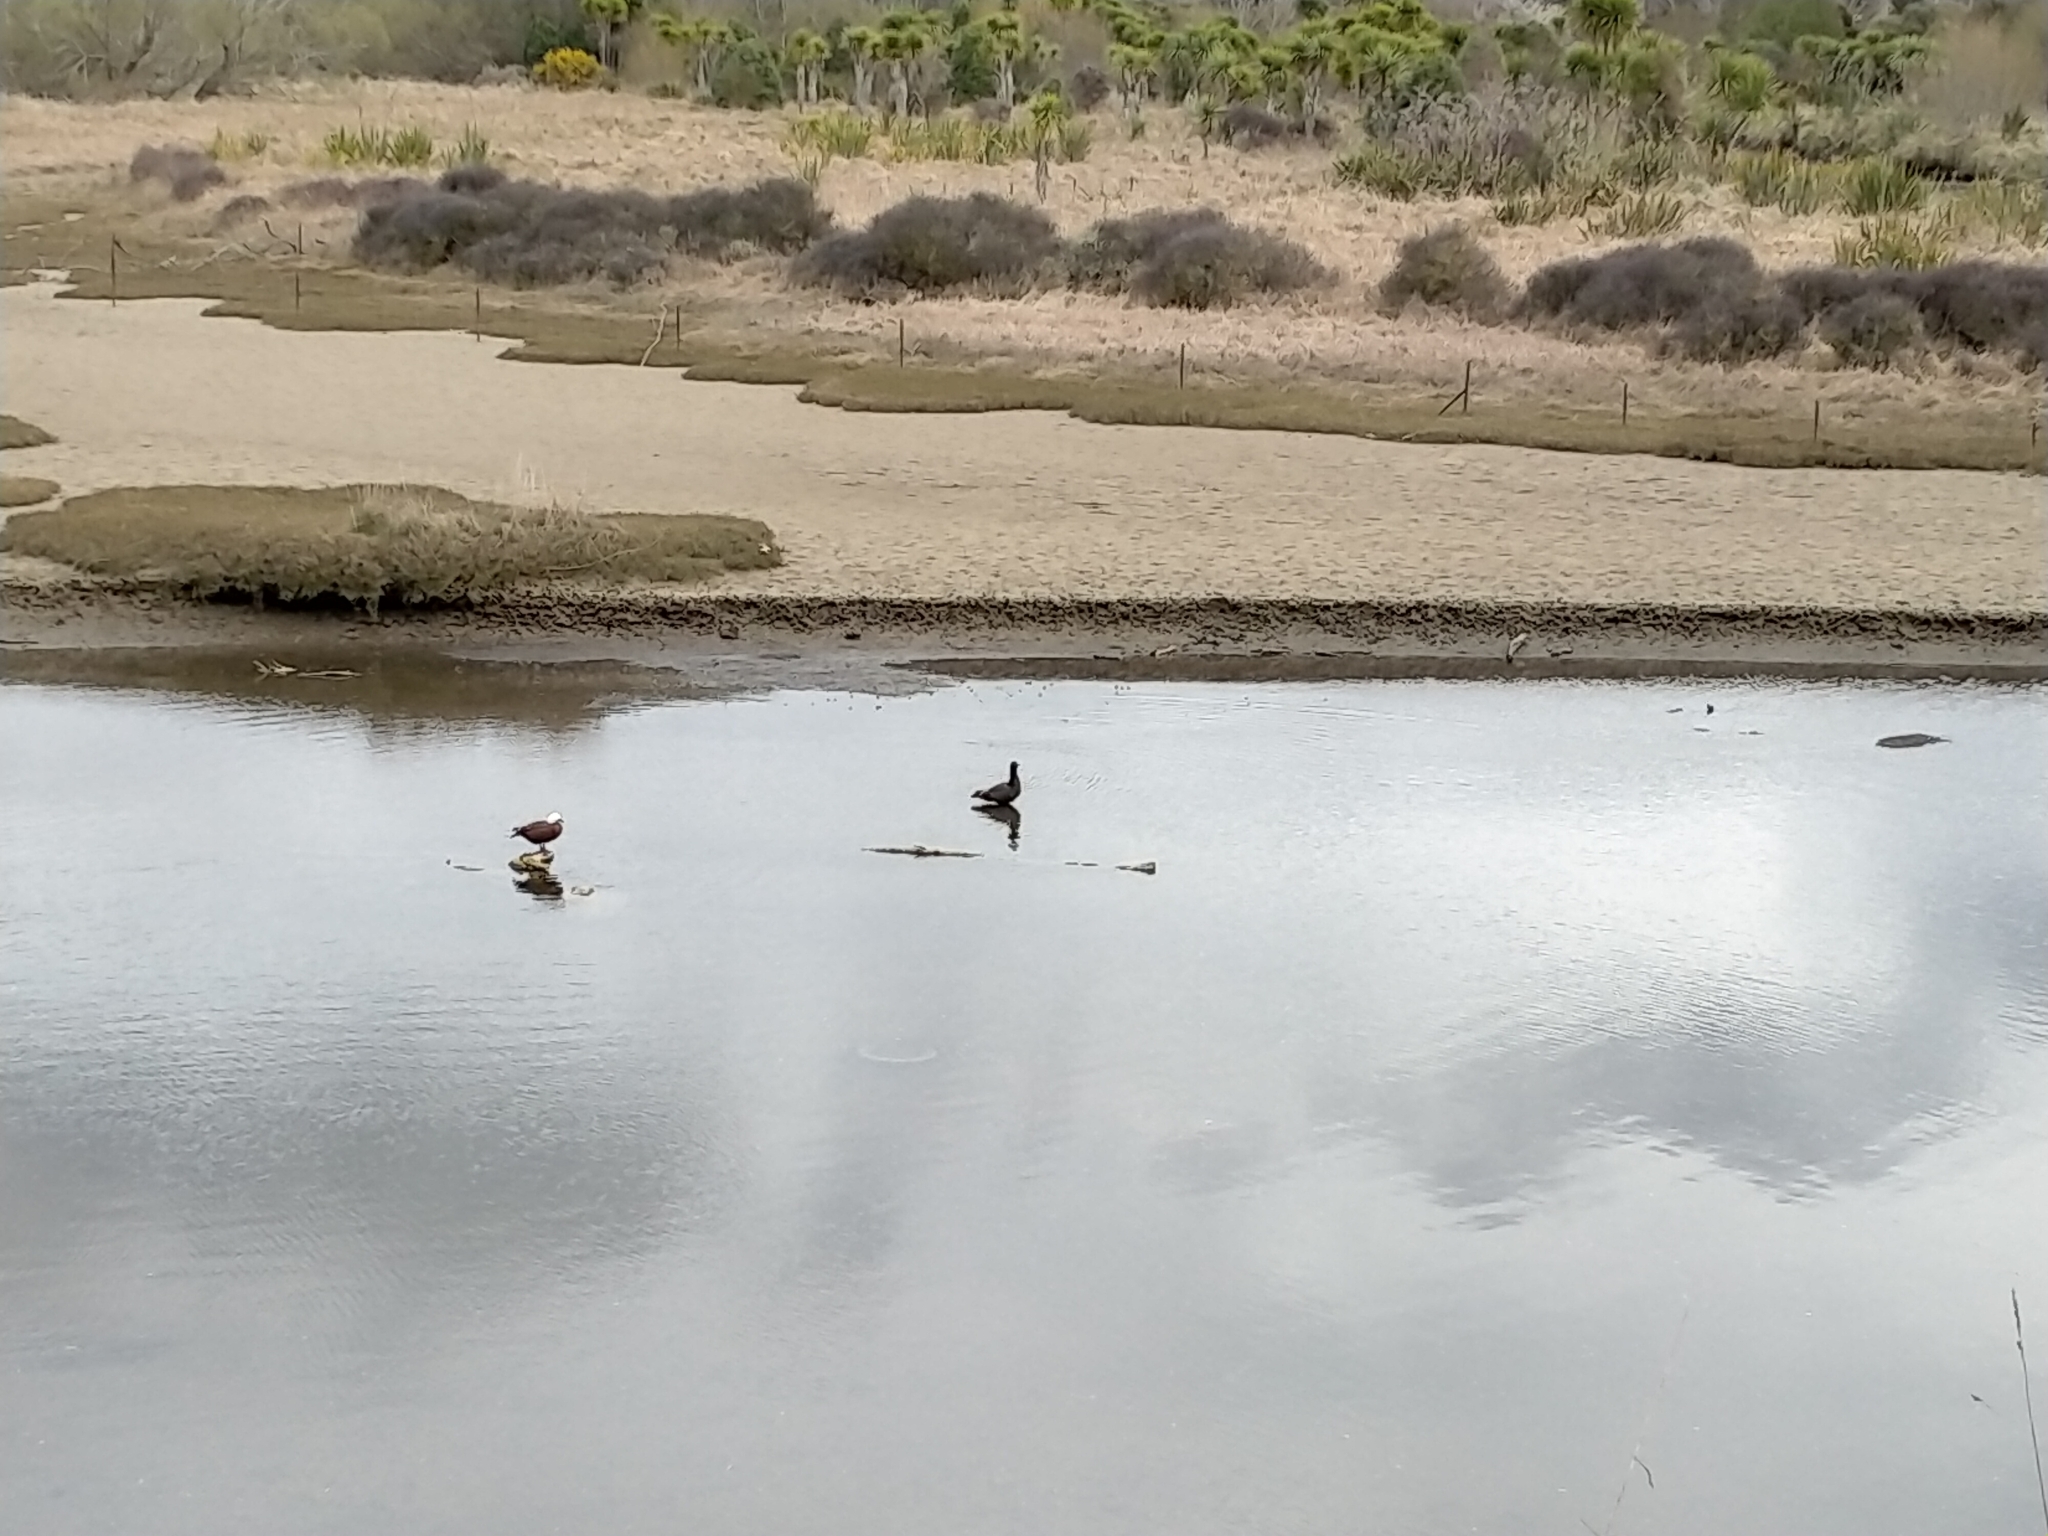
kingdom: Animalia
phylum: Chordata
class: Aves
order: Anseriformes
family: Anatidae
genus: Tadorna
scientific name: Tadorna variegata
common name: Paradise shelduck
